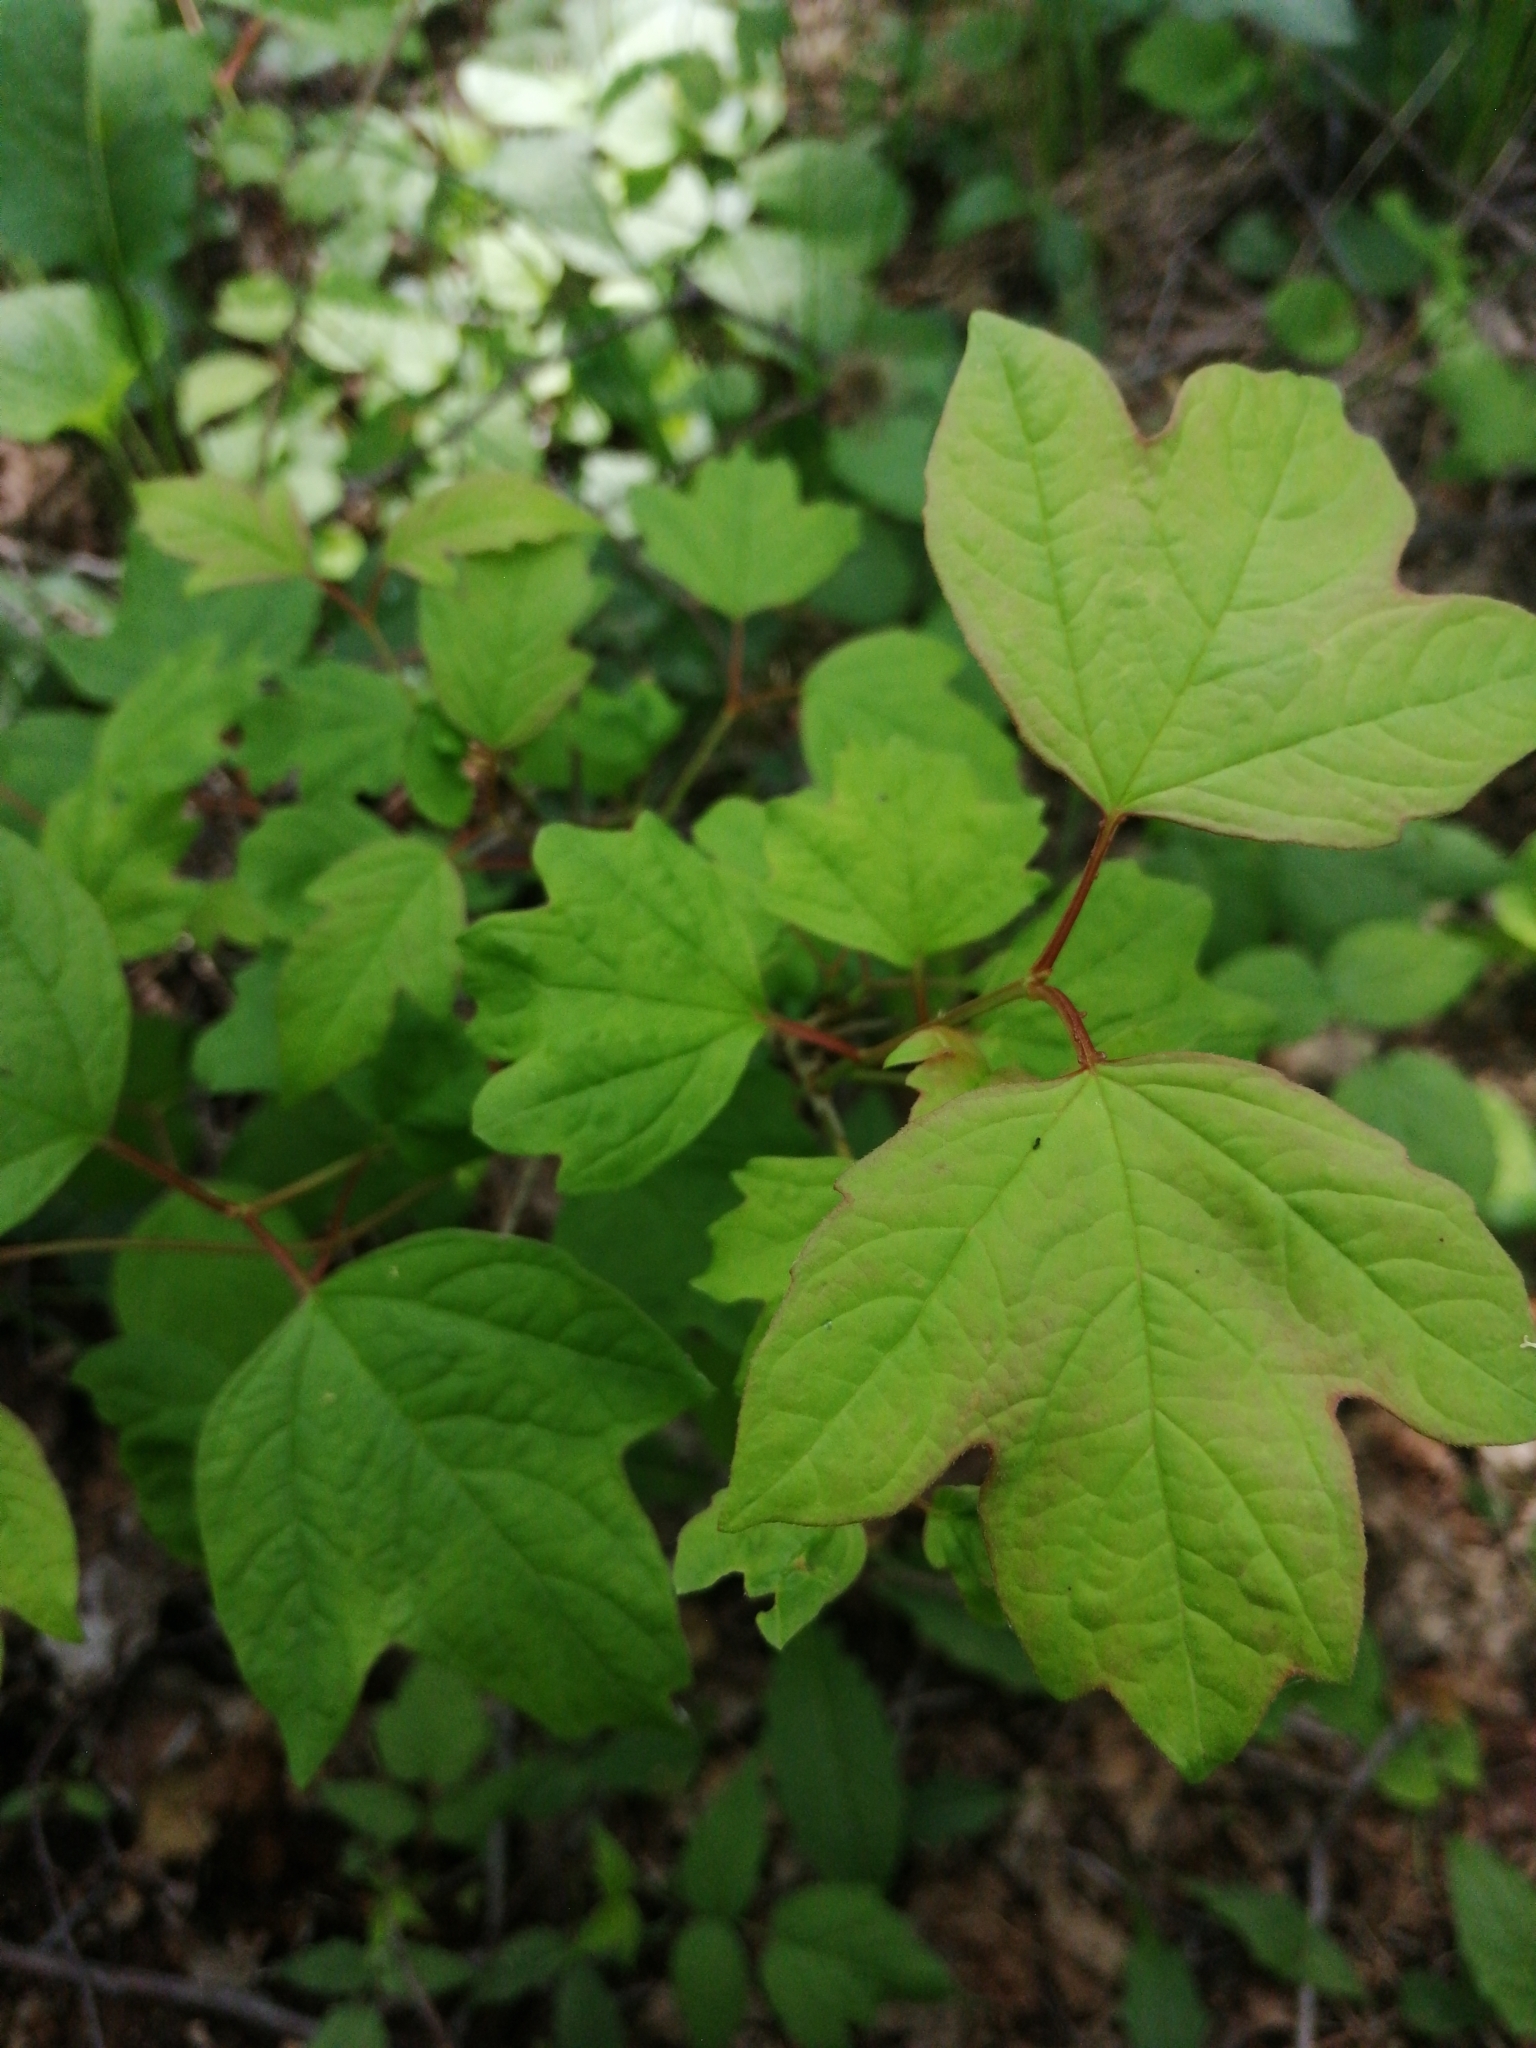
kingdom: Plantae
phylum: Tracheophyta
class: Magnoliopsida
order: Dipsacales
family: Viburnaceae
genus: Viburnum
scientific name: Viburnum opulus
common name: Guelder-rose
